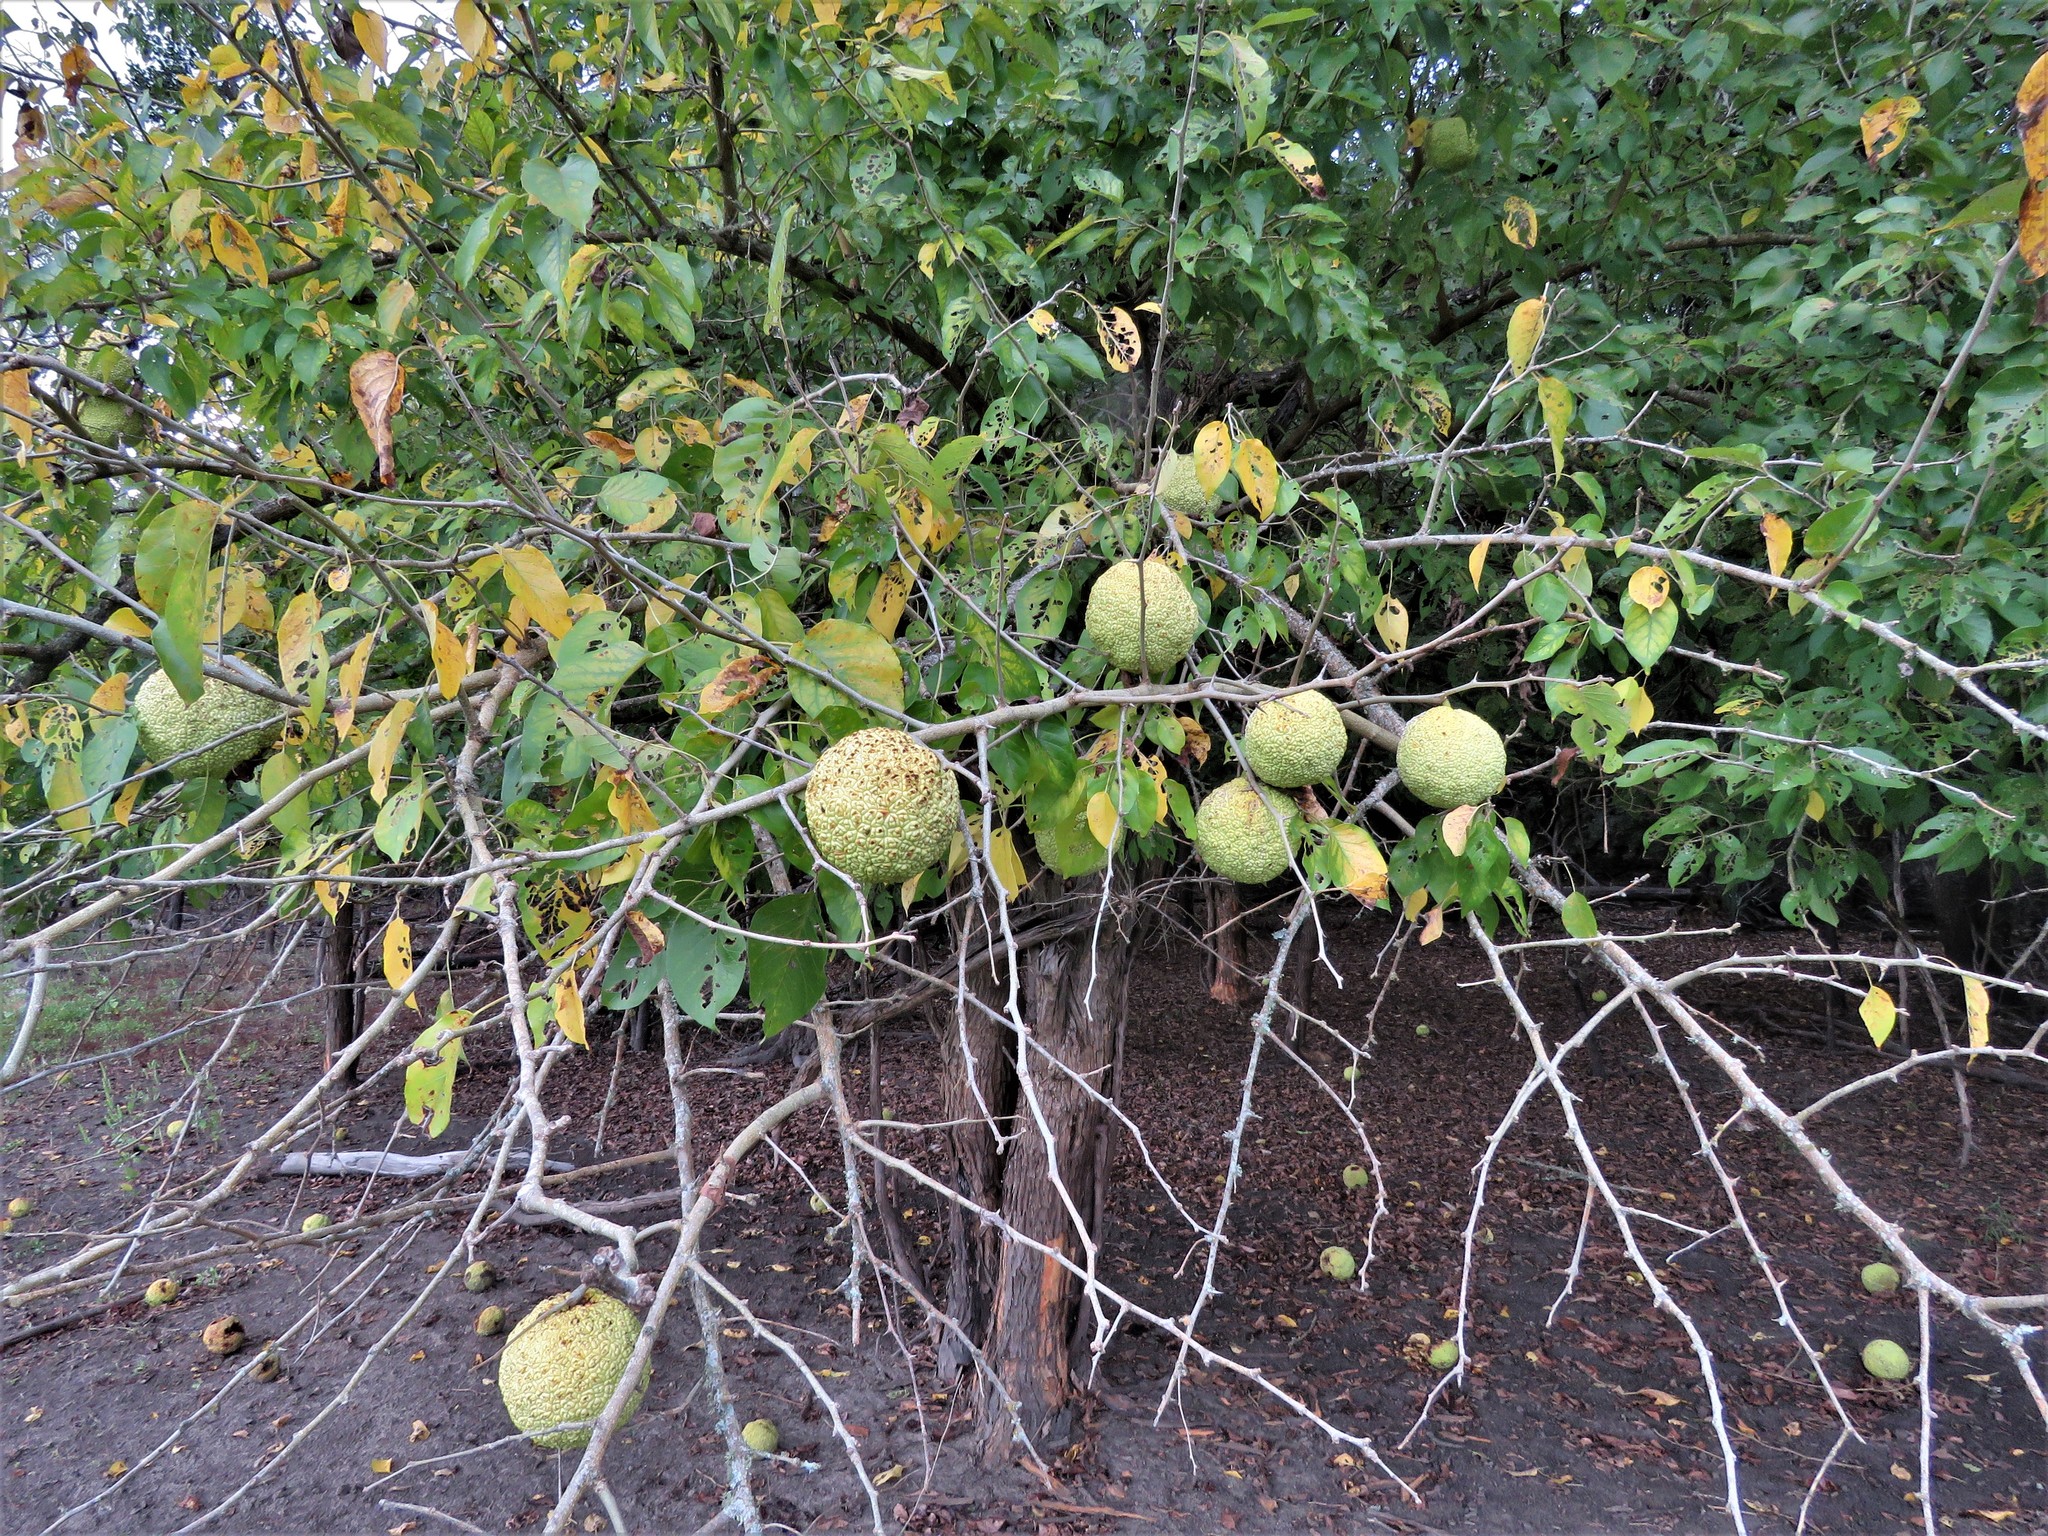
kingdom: Plantae
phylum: Tracheophyta
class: Magnoliopsida
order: Rosales
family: Moraceae
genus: Maclura
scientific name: Maclura pomifera
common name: Osage-orange
